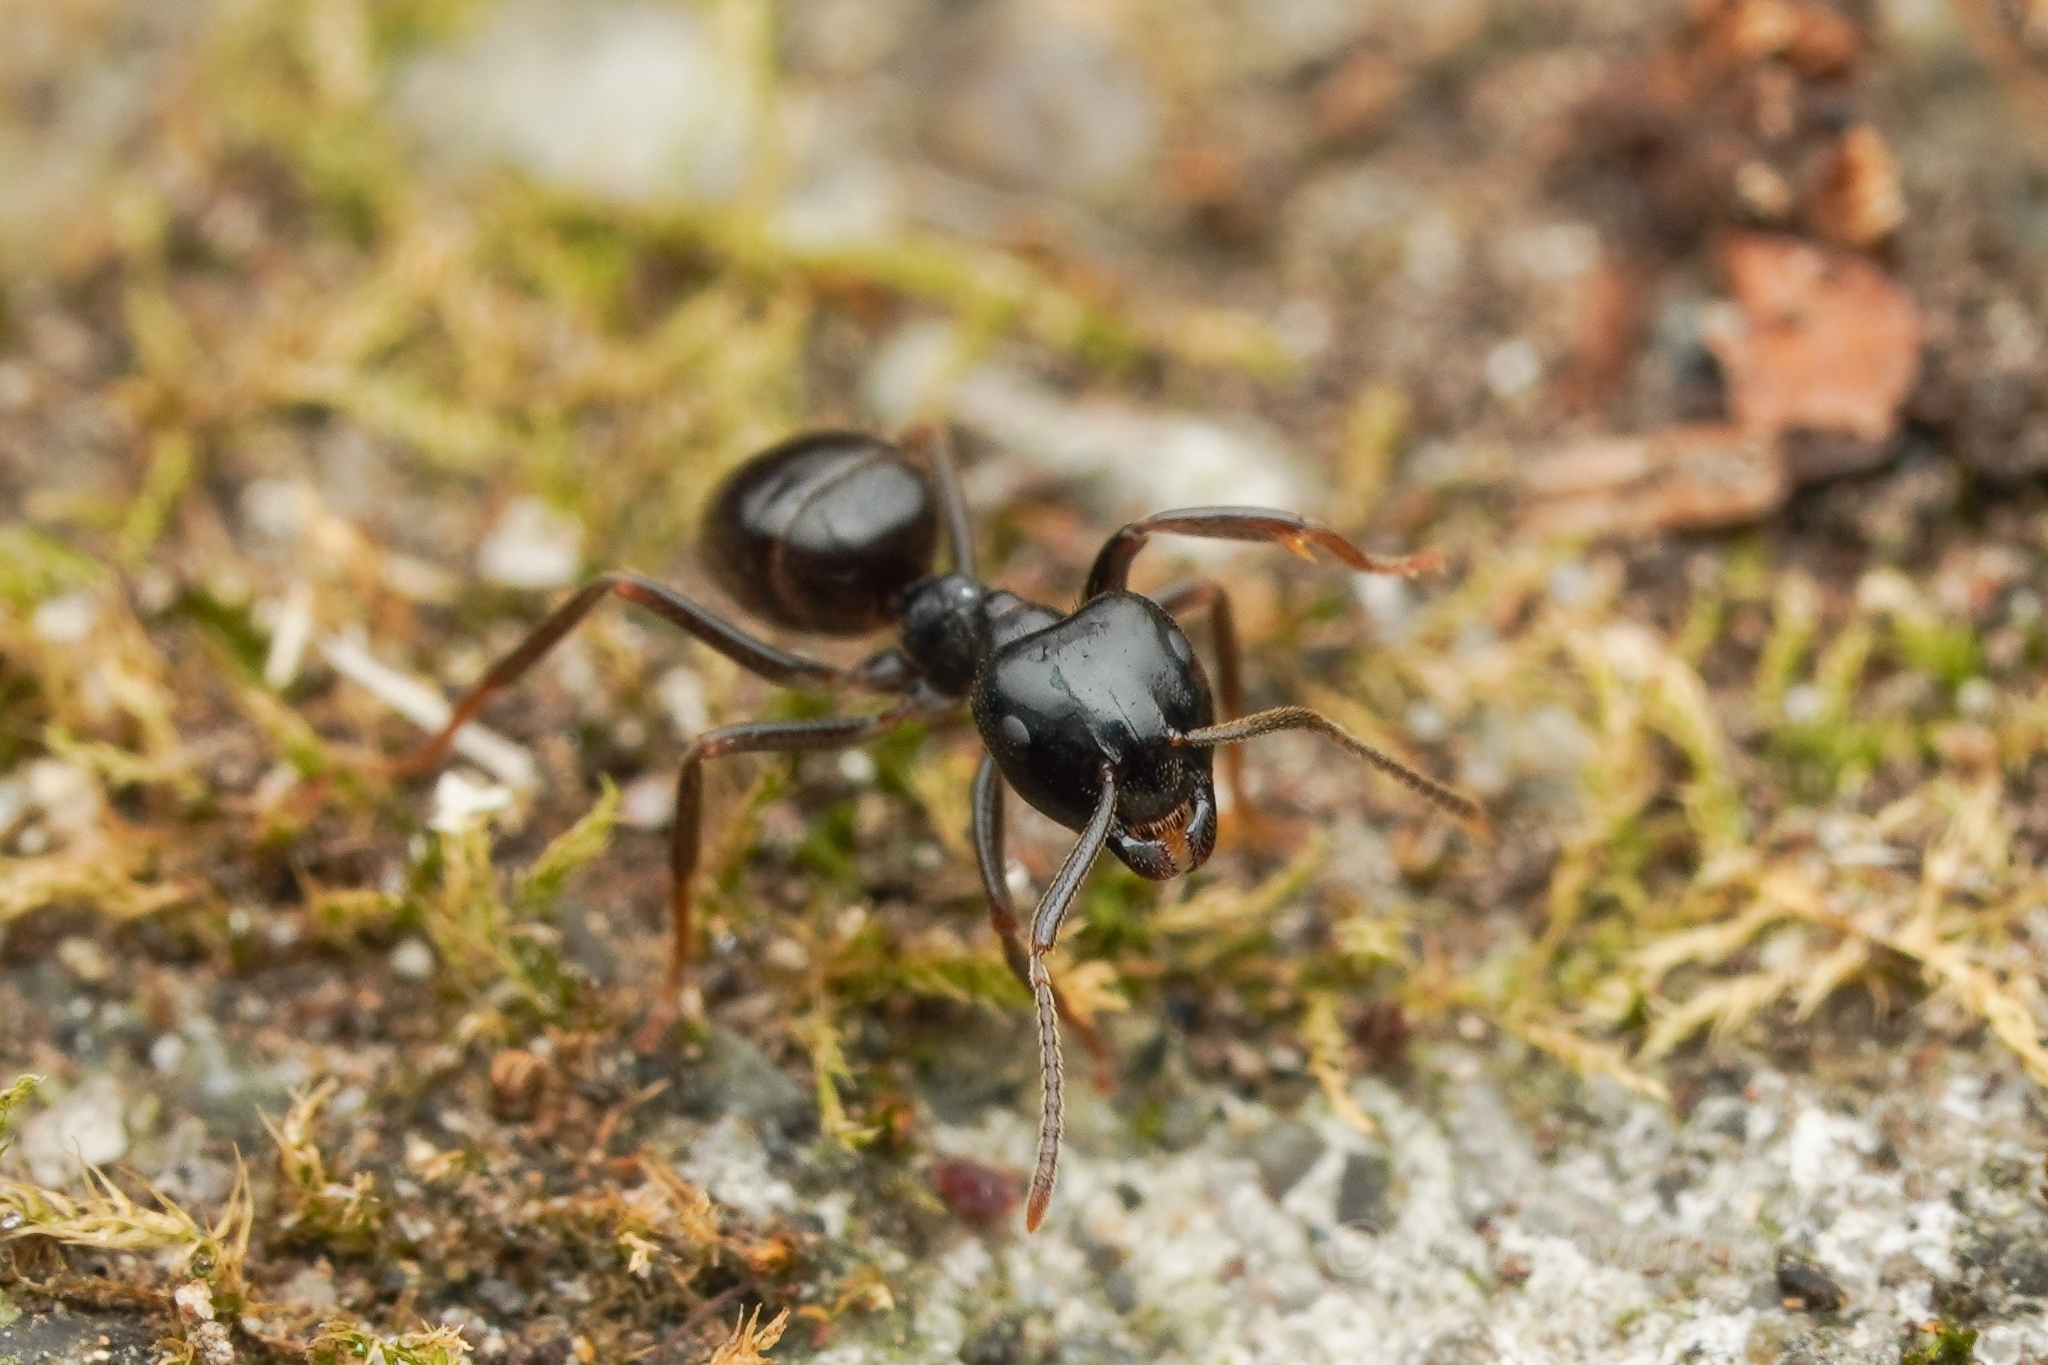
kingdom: Animalia
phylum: Arthropoda
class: Insecta
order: Hymenoptera
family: Formicidae
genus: Lasius
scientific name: Lasius
